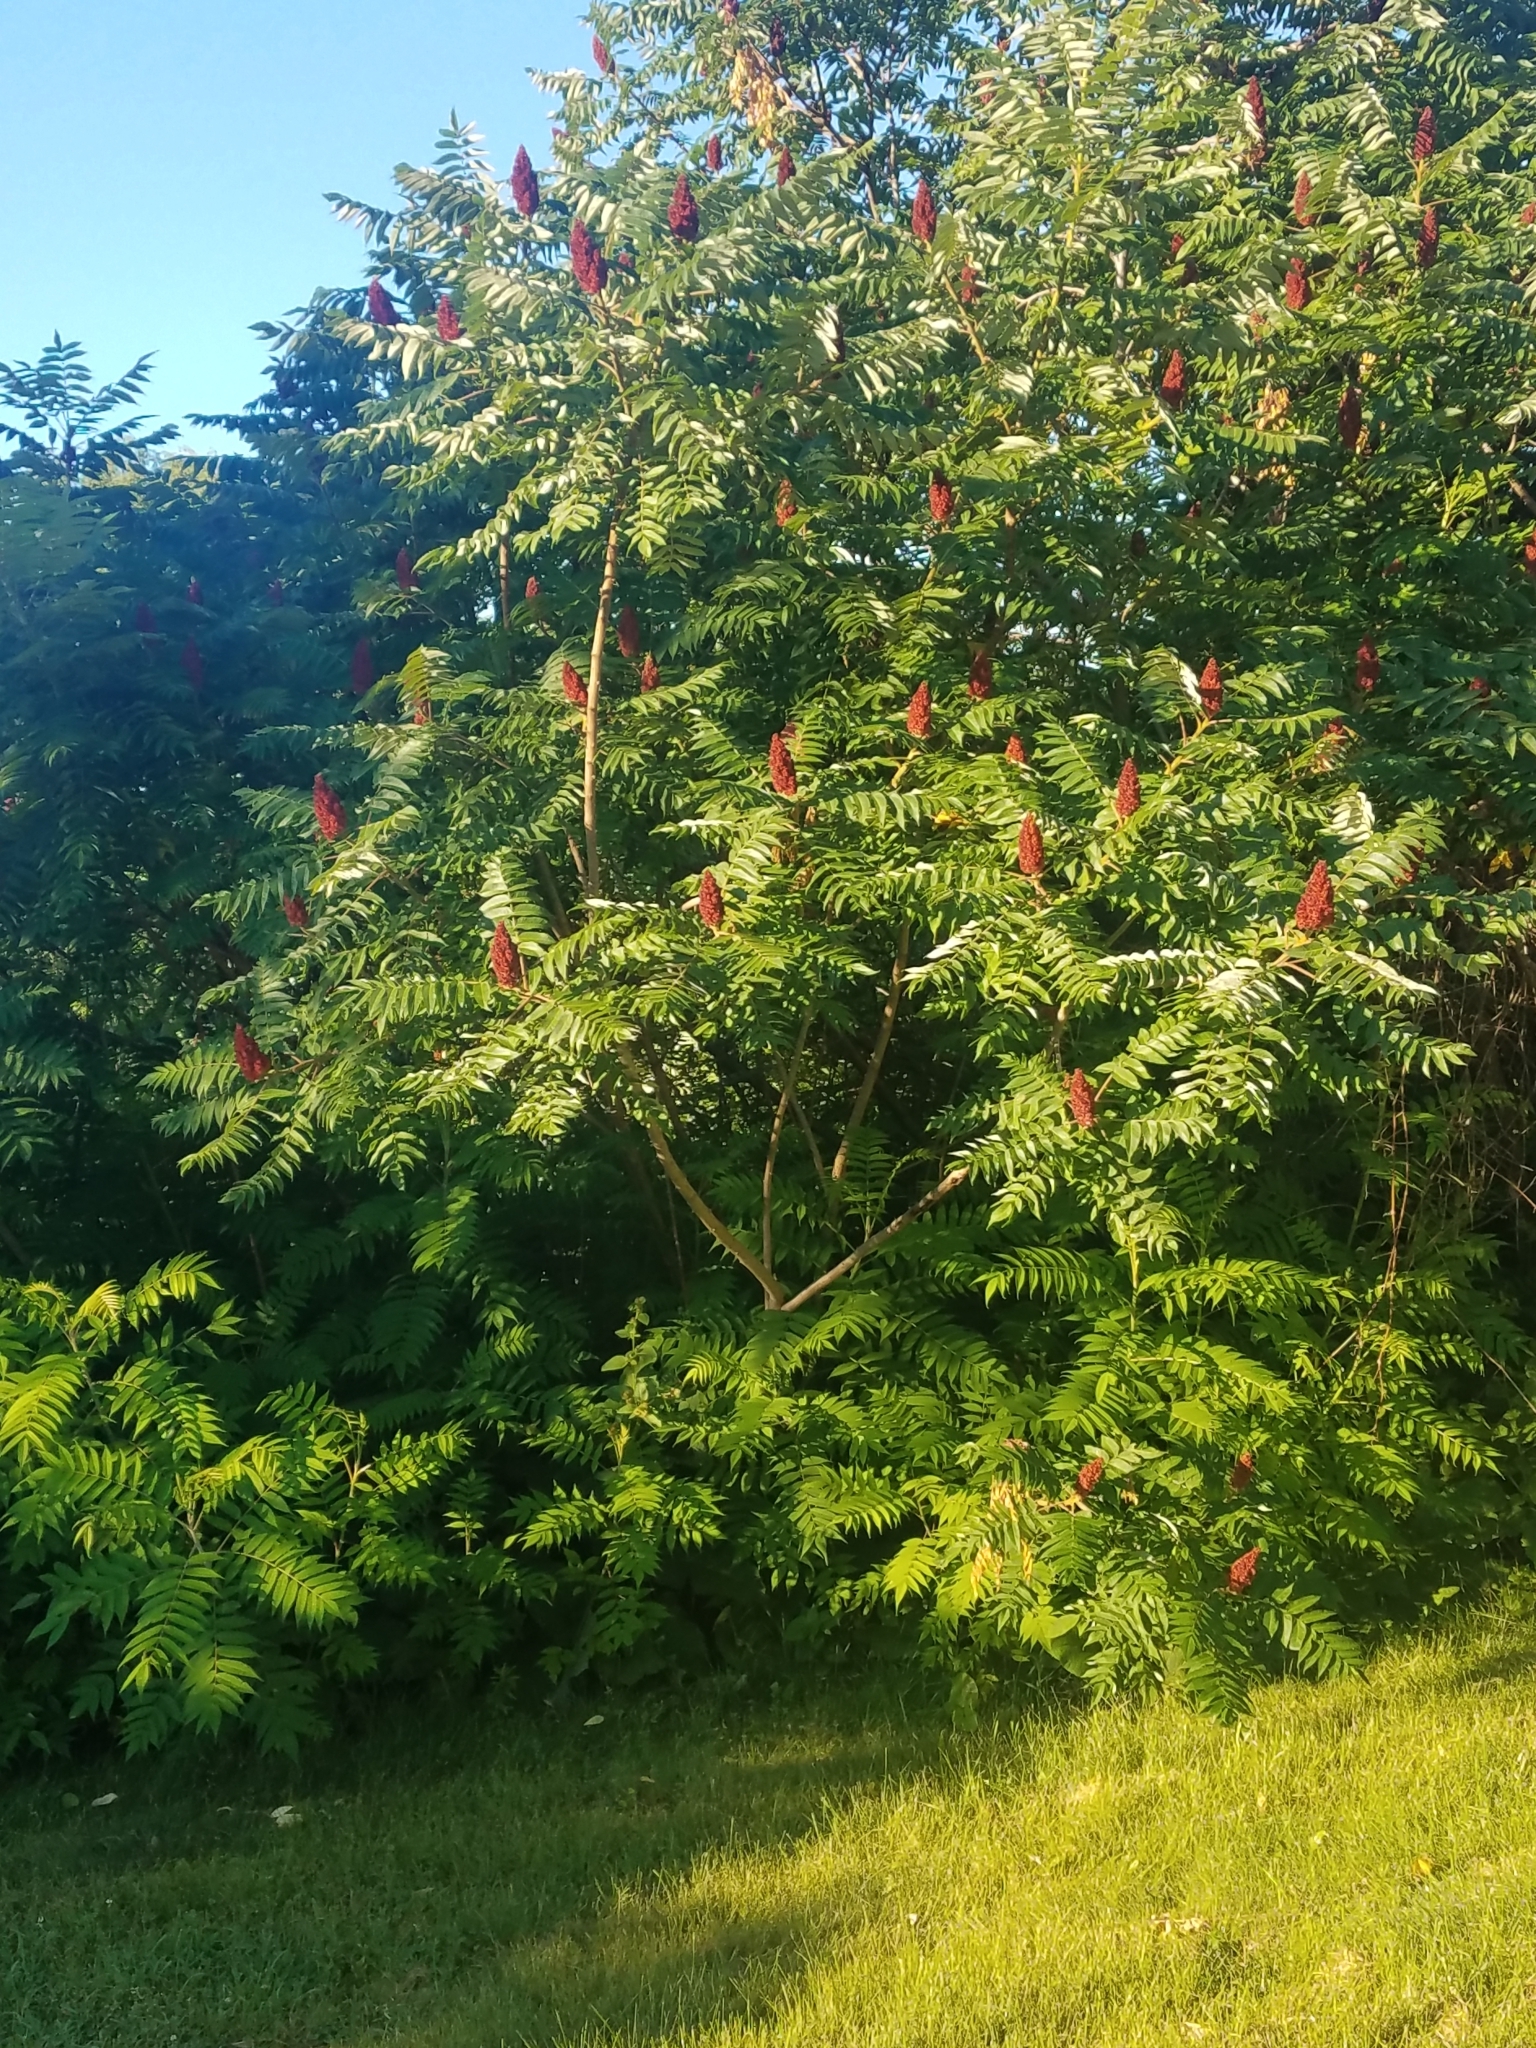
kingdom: Plantae
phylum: Tracheophyta
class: Magnoliopsida
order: Sapindales
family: Anacardiaceae
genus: Rhus
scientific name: Rhus typhina
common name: Staghorn sumac
